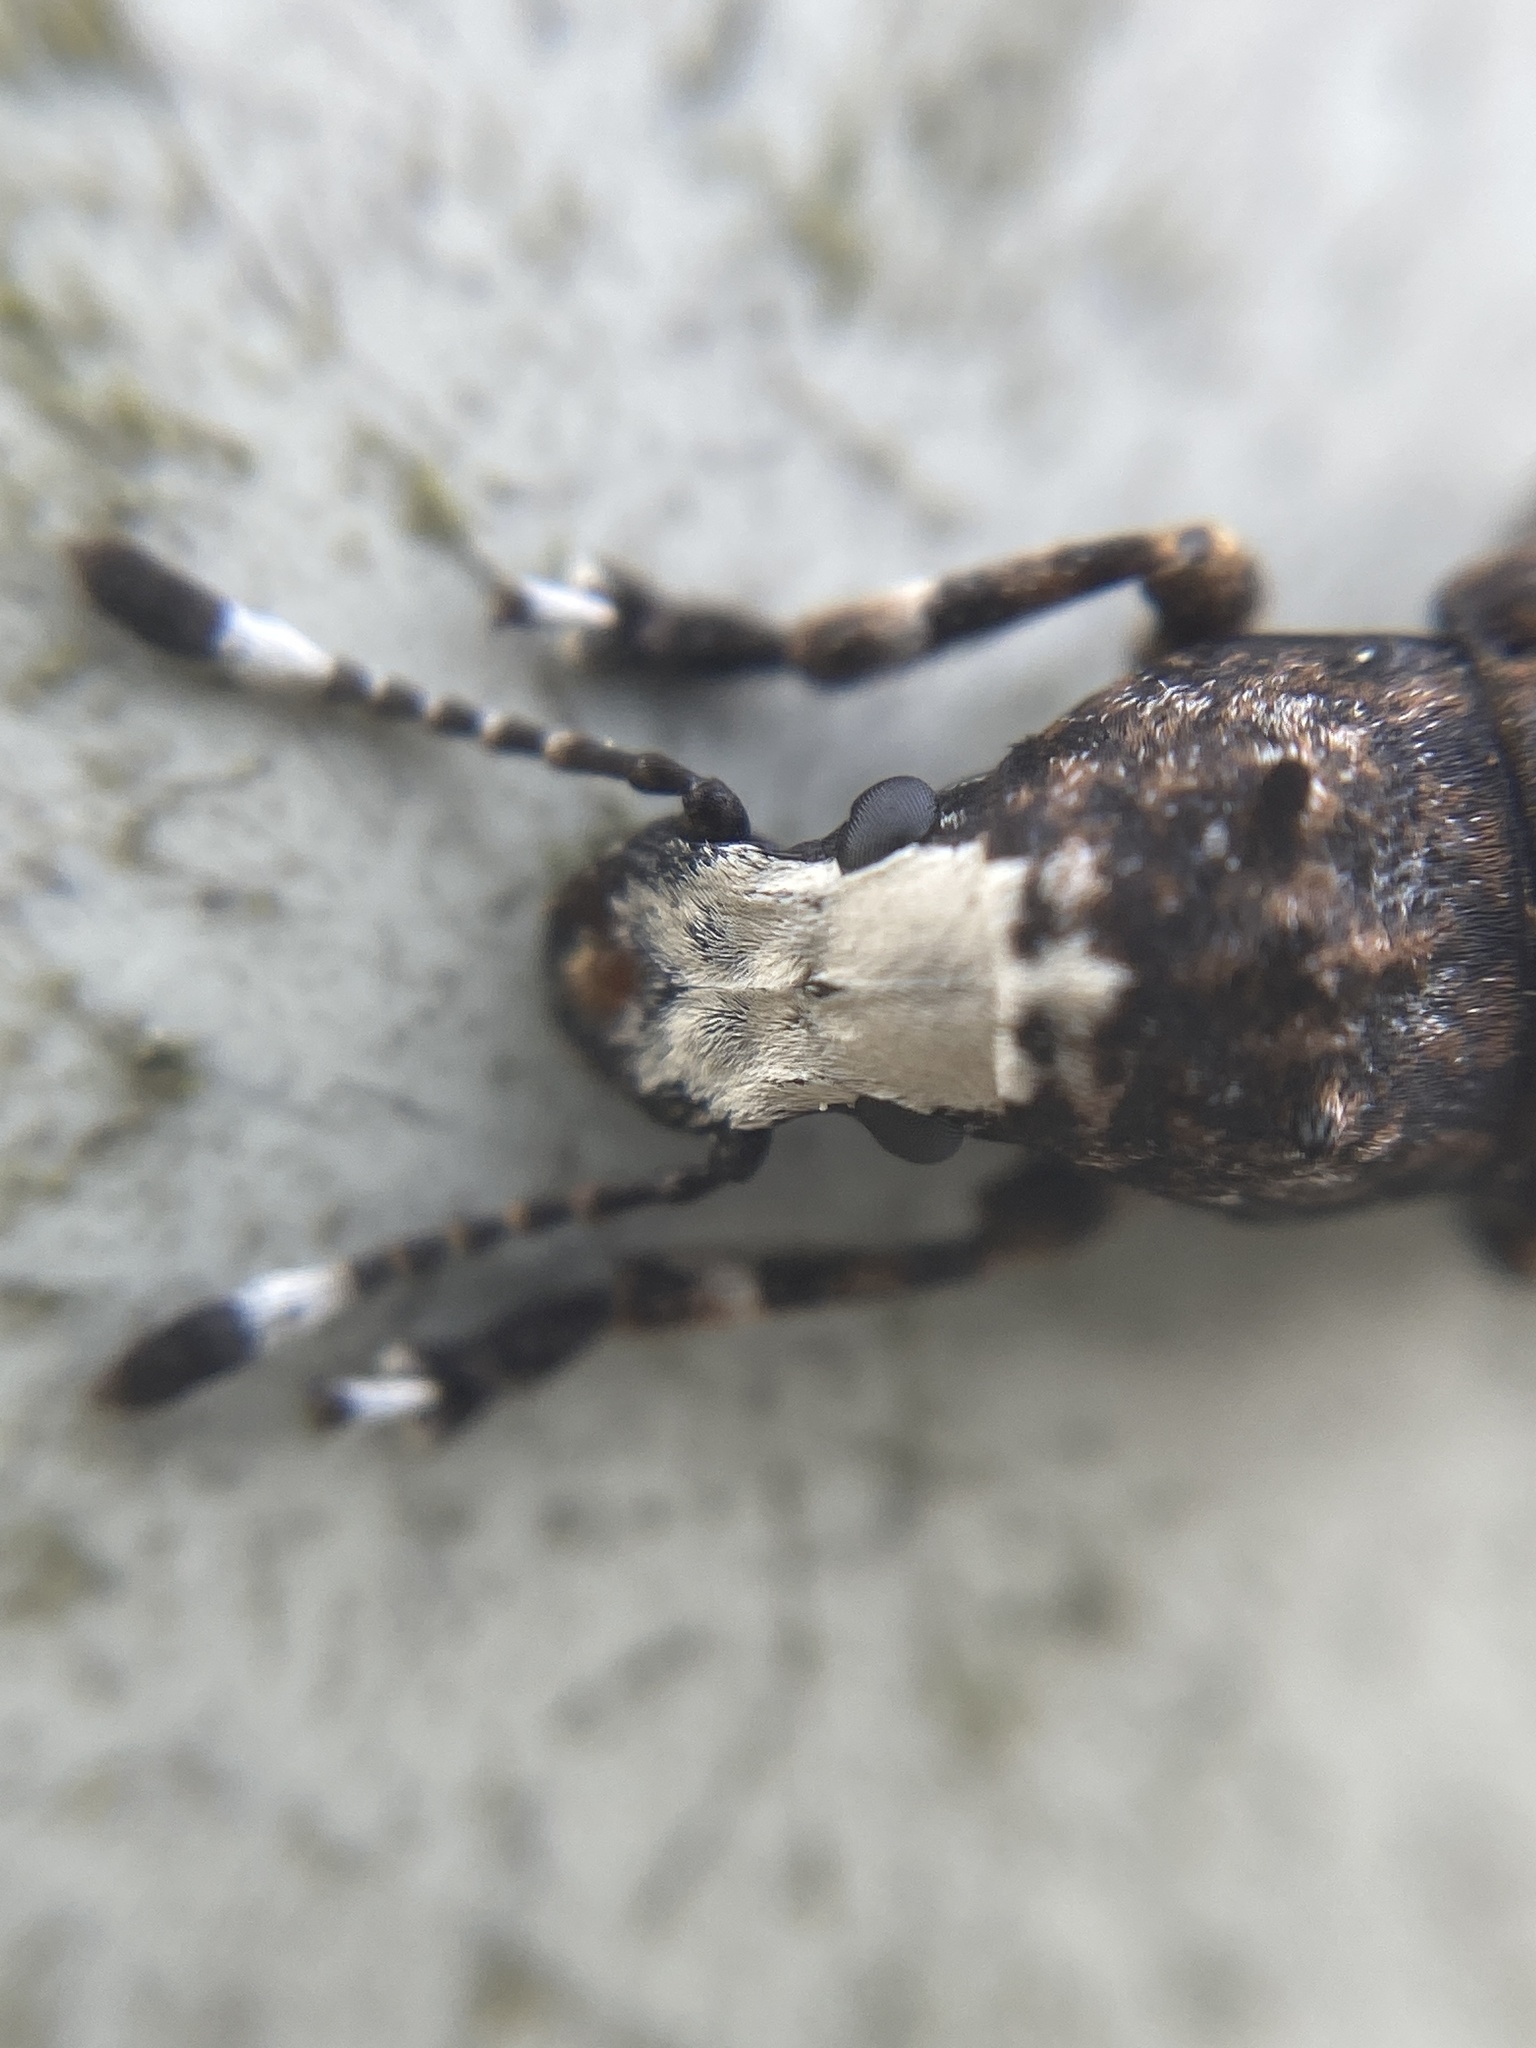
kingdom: Animalia
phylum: Arthropoda
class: Insecta
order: Coleoptera
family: Anthribidae
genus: Platystomos
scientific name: Platystomos albinus
